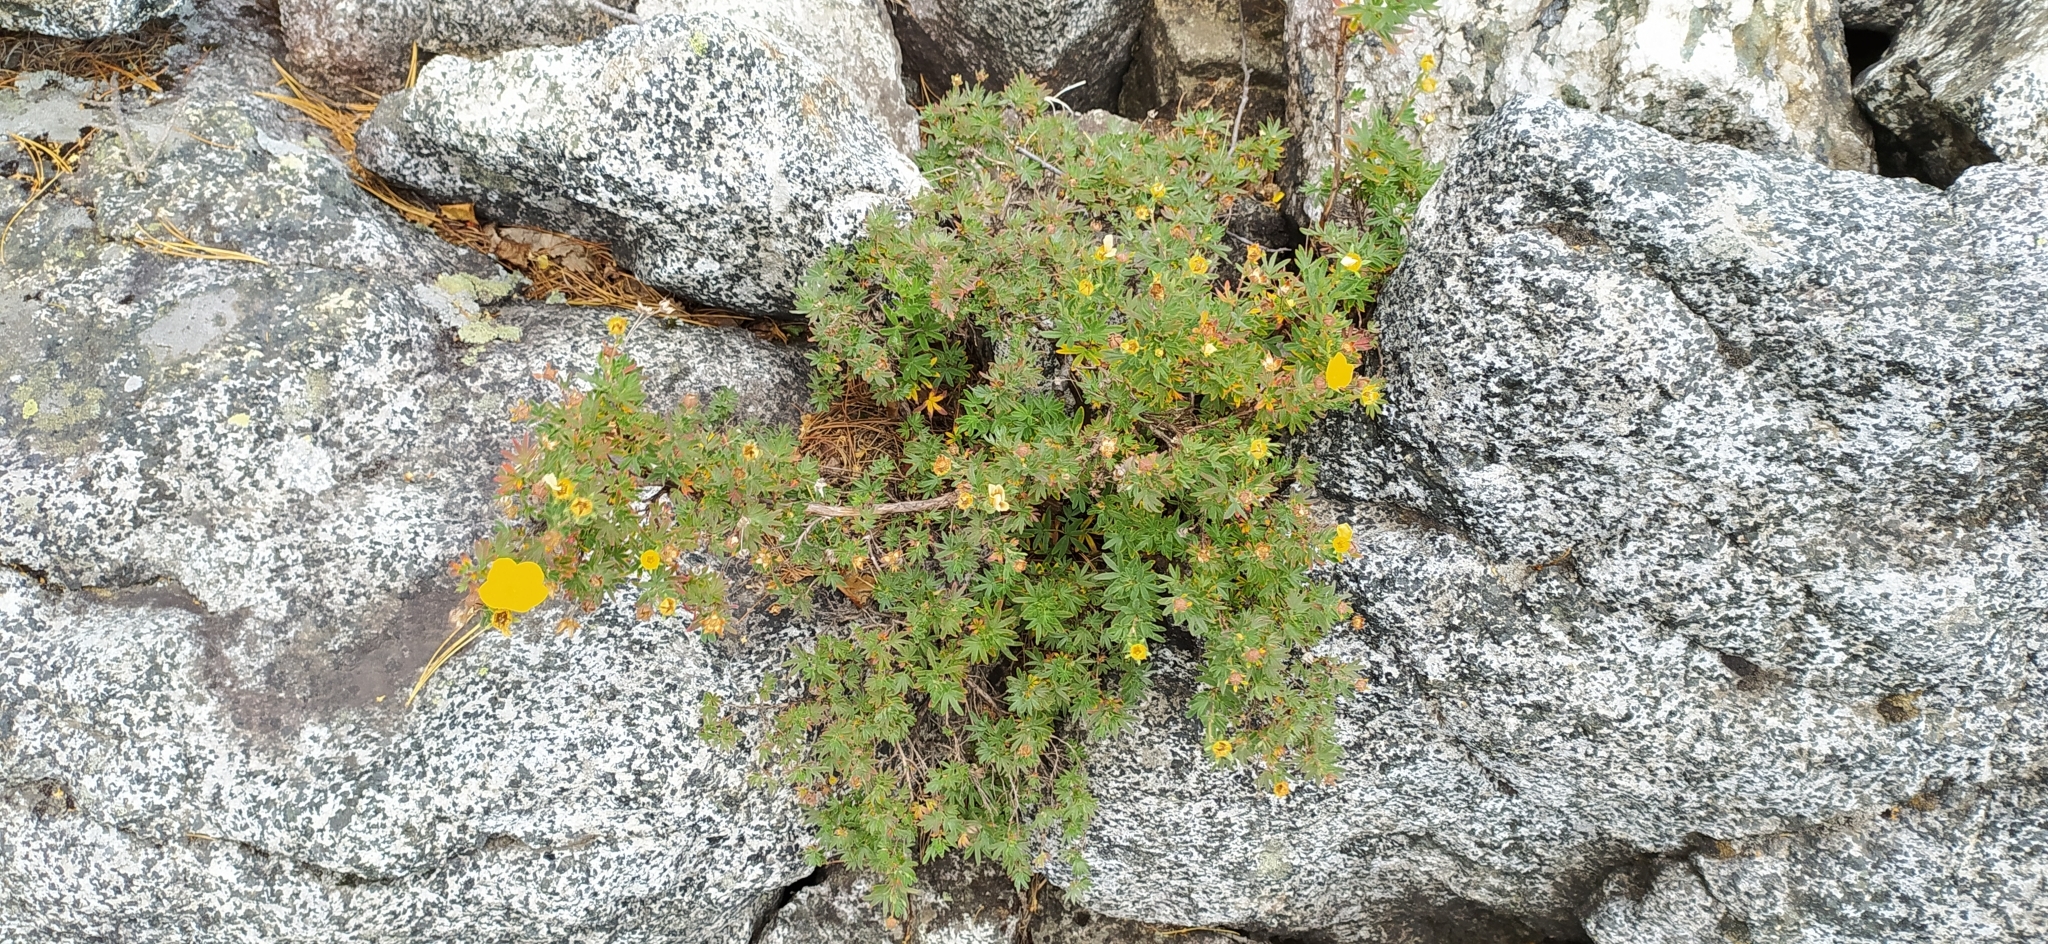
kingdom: Plantae
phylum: Tracheophyta
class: Magnoliopsida
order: Rosales
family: Rosaceae
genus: Dasiphora
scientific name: Dasiphora fruticosa
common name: Shrubby cinquefoil
